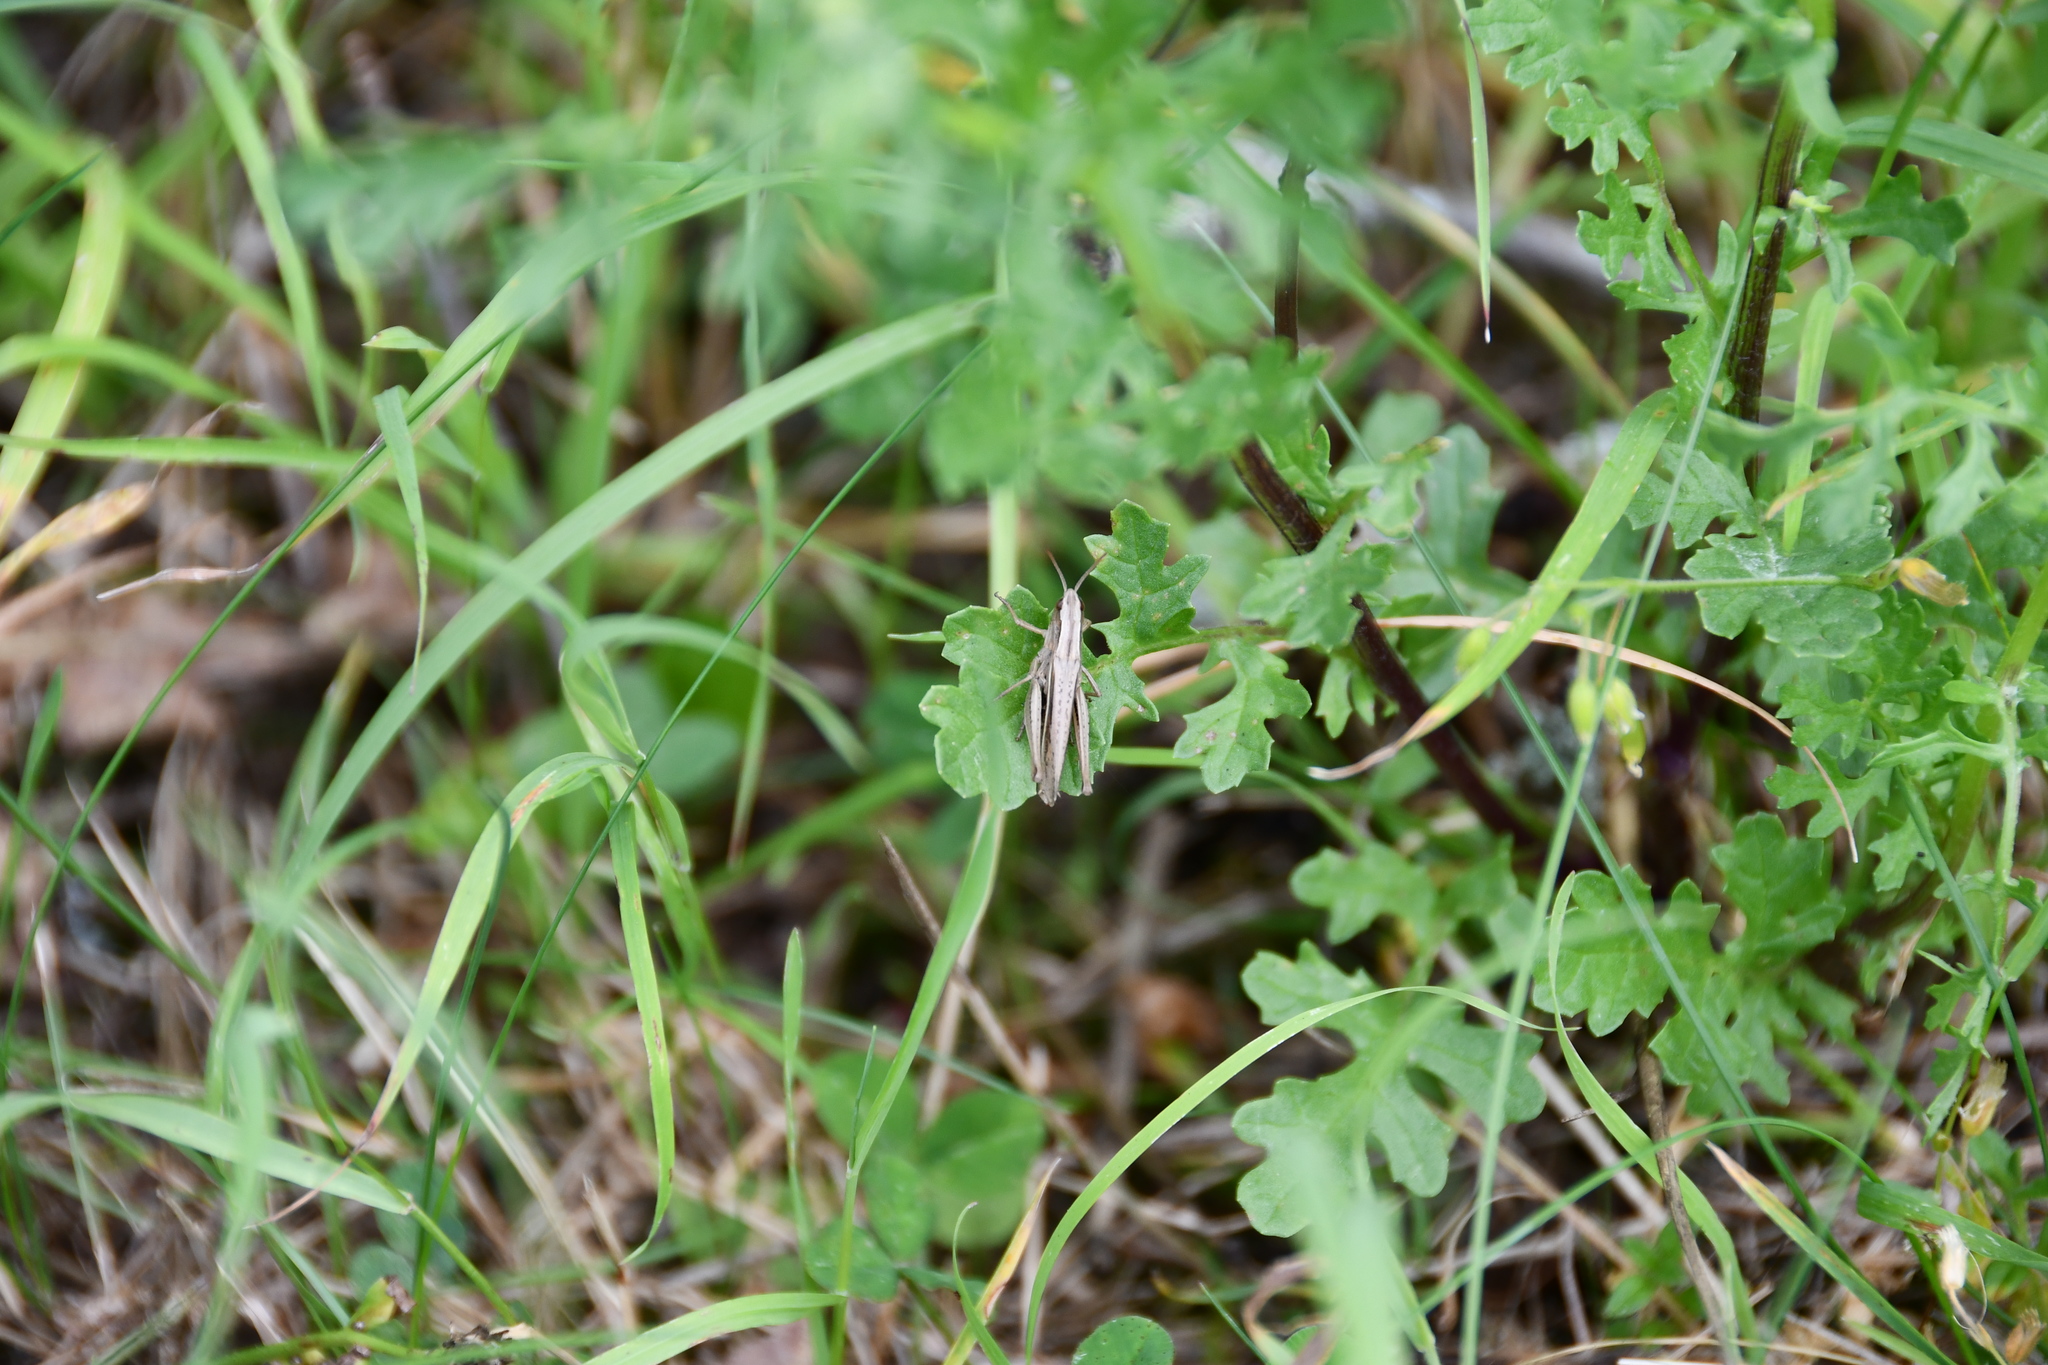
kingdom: Animalia
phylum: Arthropoda
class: Insecta
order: Orthoptera
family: Acrididae
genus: Chorthippus
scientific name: Chorthippus albomarginatus
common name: Lesser marsh grasshopper
